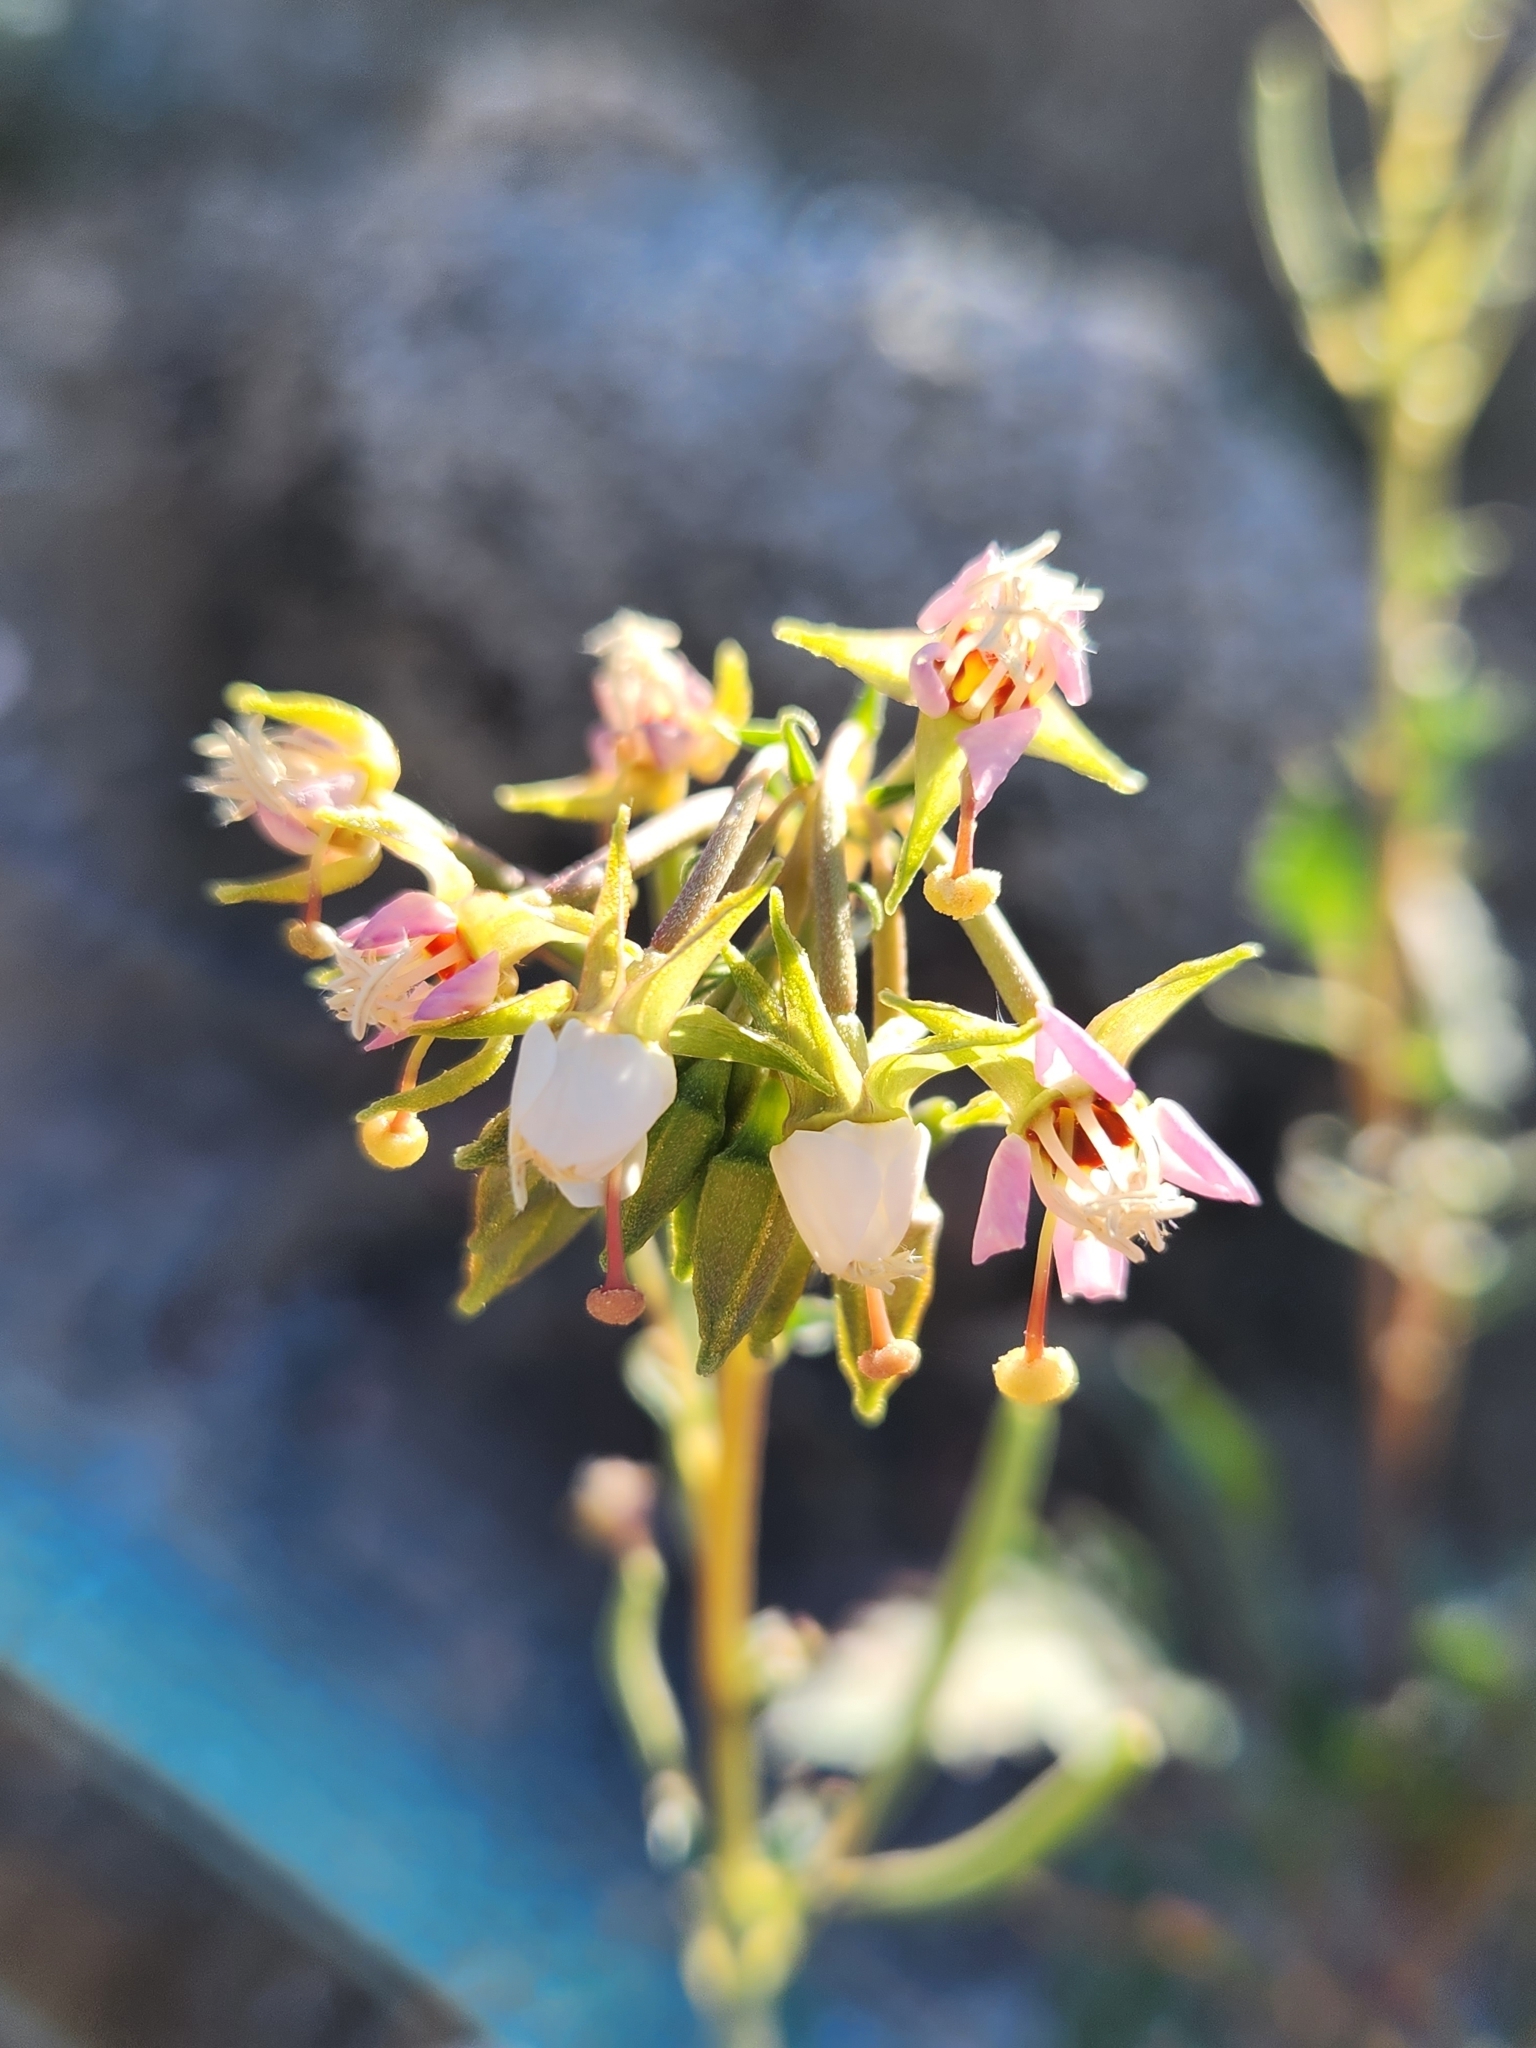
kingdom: Plantae
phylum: Tracheophyta
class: Magnoliopsida
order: Myrtales
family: Onagraceae
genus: Chylismia
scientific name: Chylismia claviformis
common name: Browneyes
